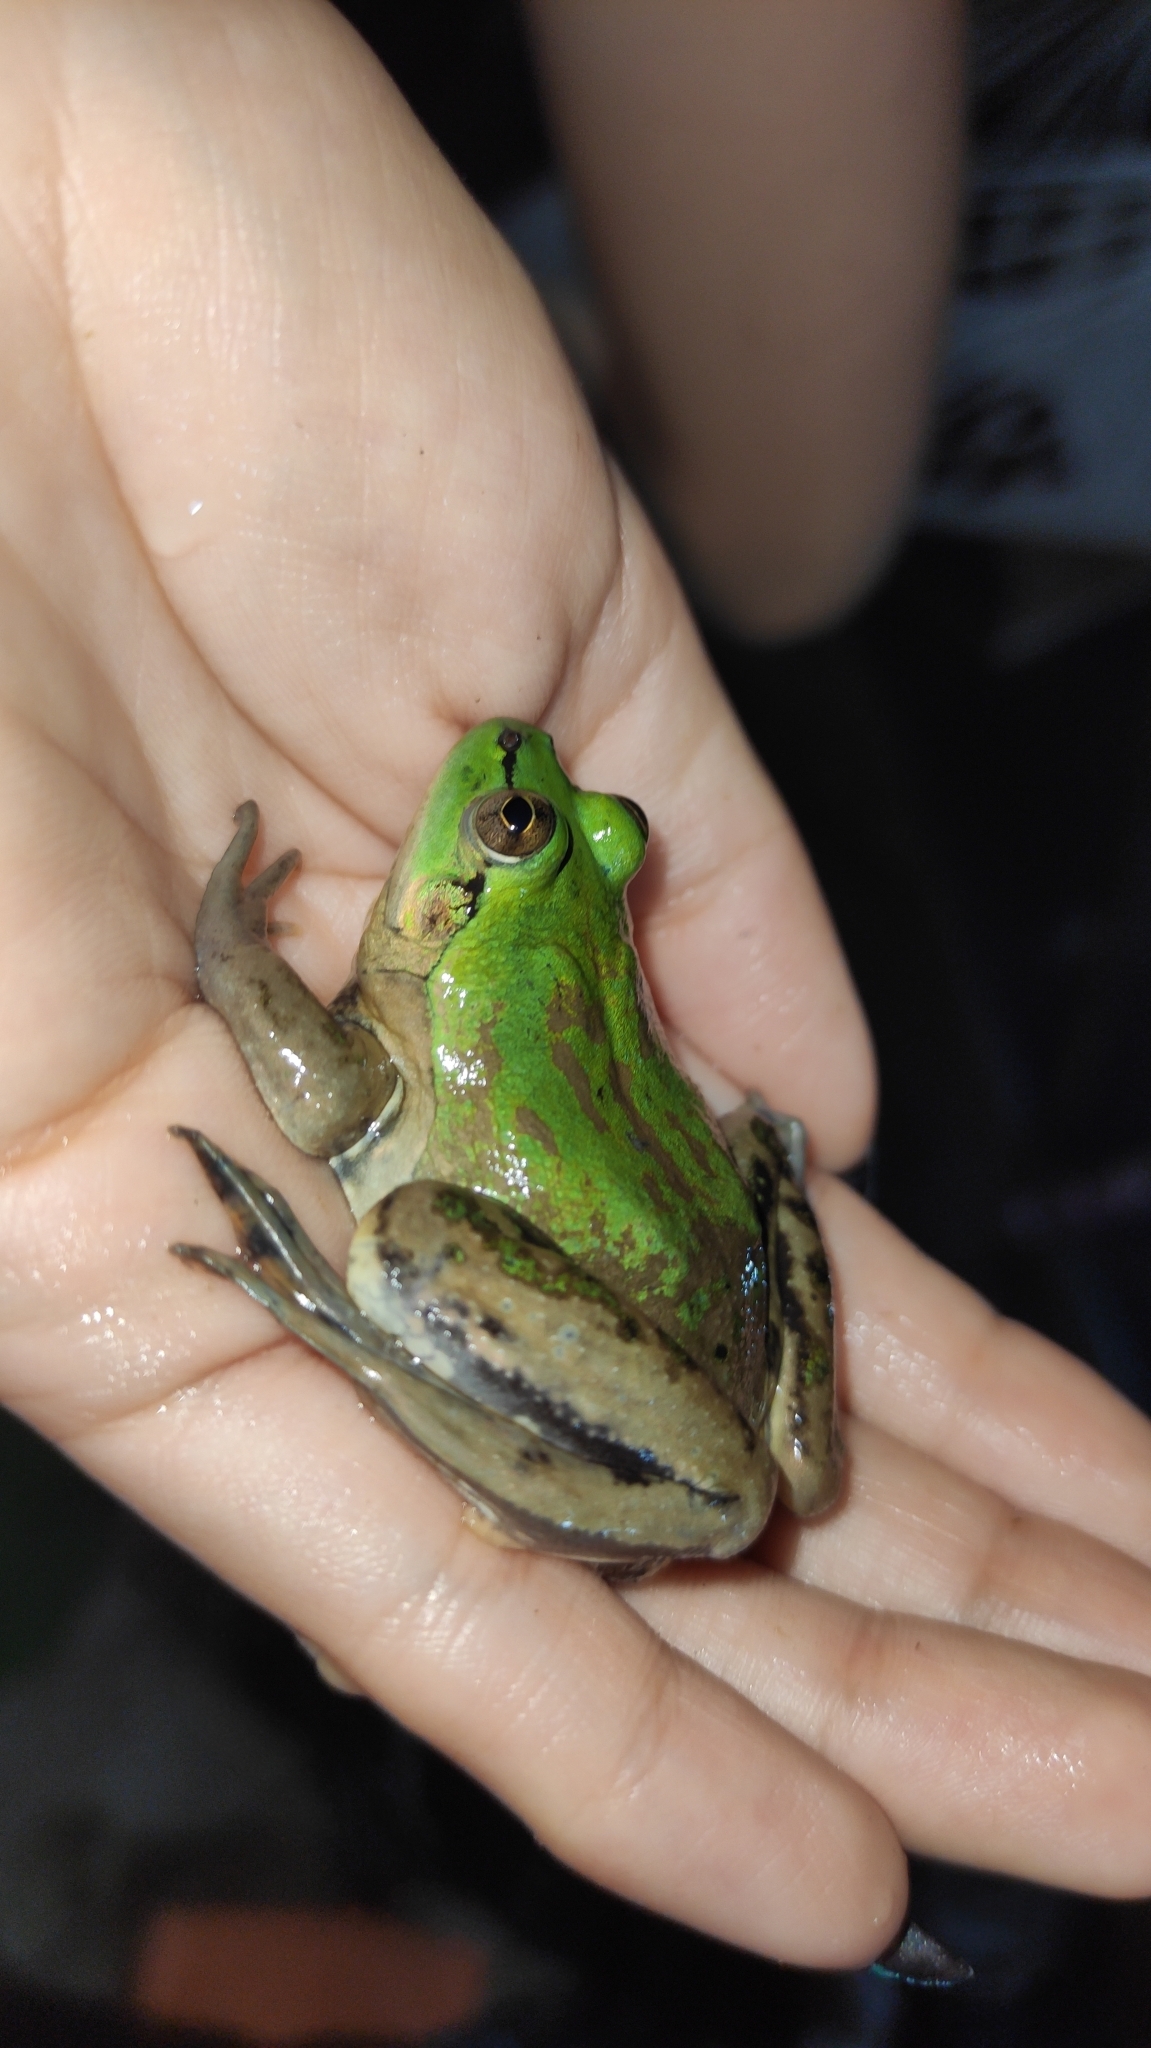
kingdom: Animalia
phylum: Chordata
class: Amphibia
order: Anura
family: Hylidae
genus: Pseudis
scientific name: Pseudis paradoxa
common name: Swimming frog
